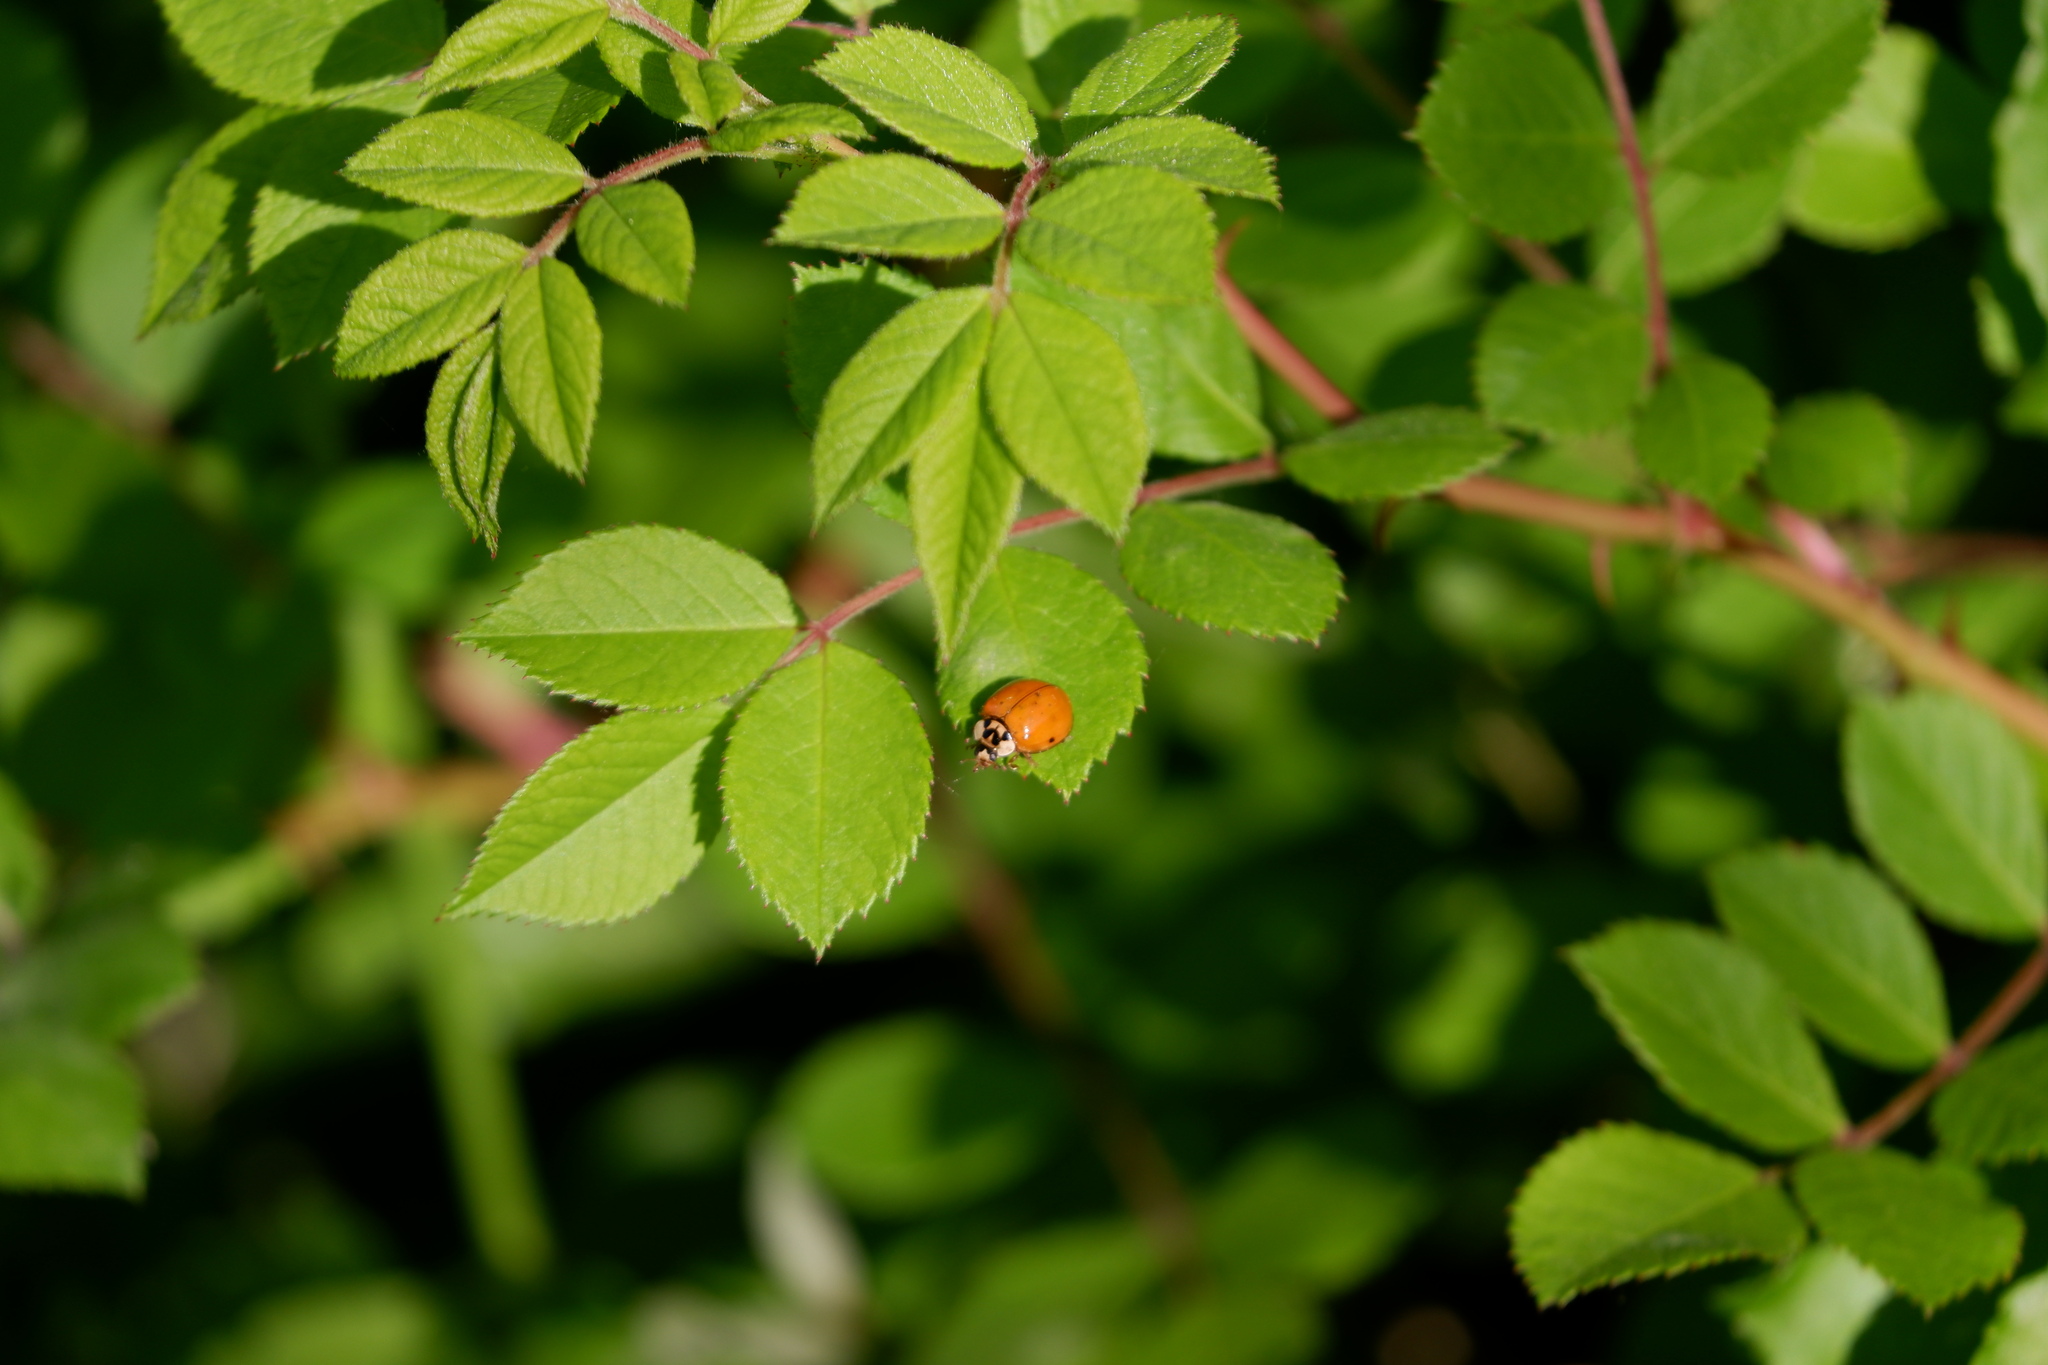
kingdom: Animalia
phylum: Arthropoda
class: Insecta
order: Coleoptera
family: Coccinellidae
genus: Harmonia
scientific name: Harmonia axyridis
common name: Harlequin ladybird
